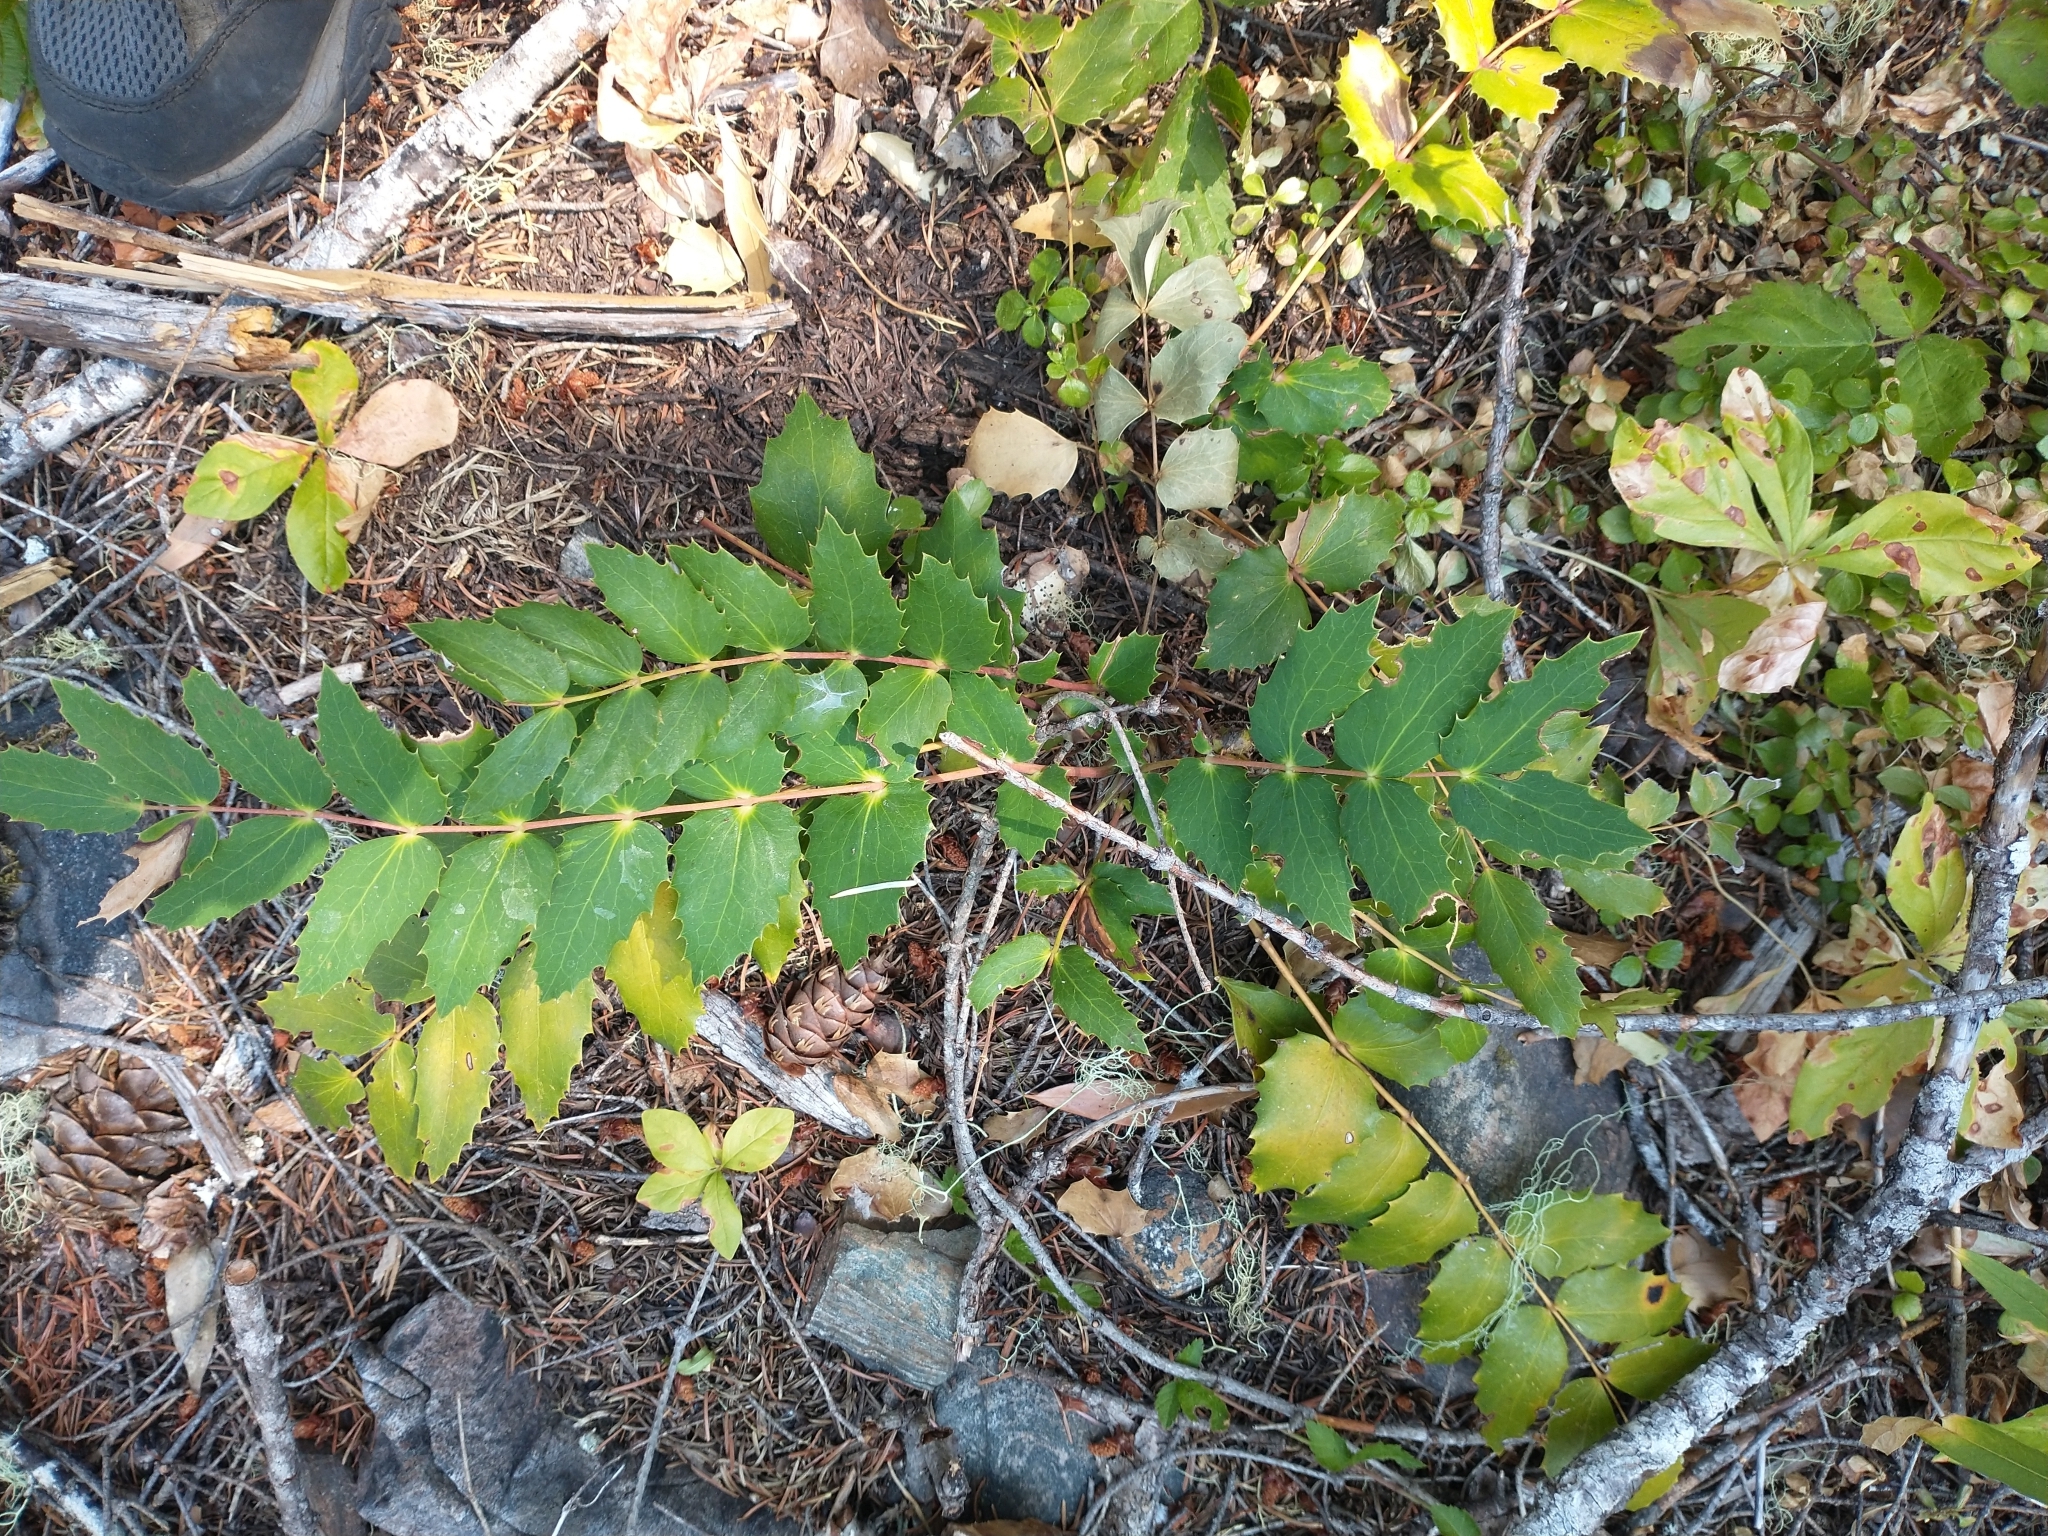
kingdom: Plantae
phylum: Tracheophyta
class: Magnoliopsida
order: Ranunculales
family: Berberidaceae
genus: Mahonia
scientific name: Mahonia nervosa
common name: Cascade oregon-grape
